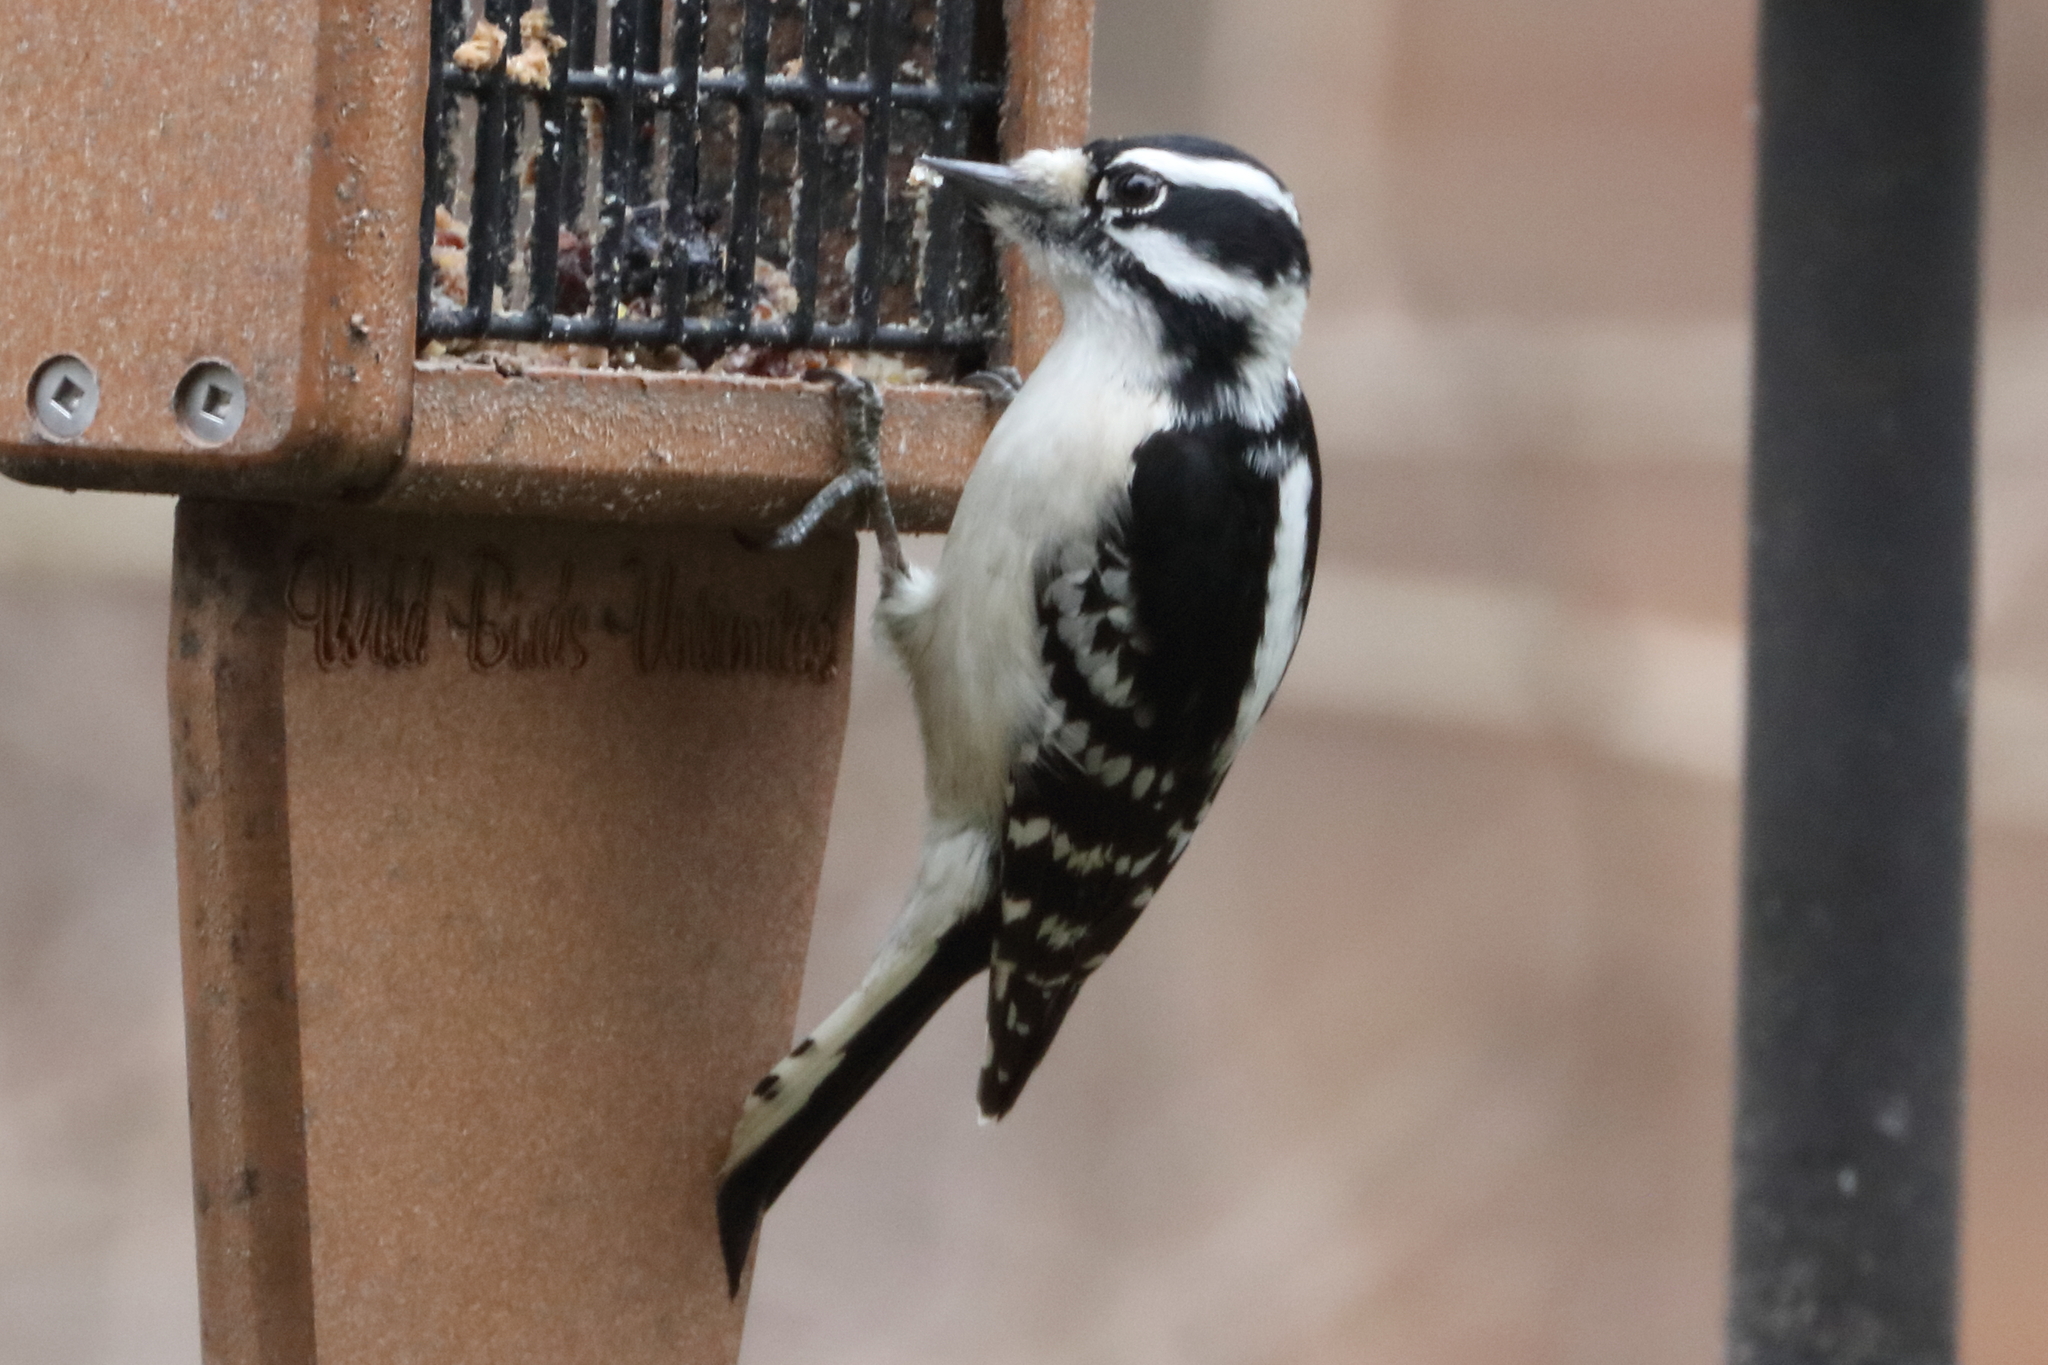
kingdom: Animalia
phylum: Chordata
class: Aves
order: Piciformes
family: Picidae
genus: Dryobates
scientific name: Dryobates pubescens
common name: Downy woodpecker
